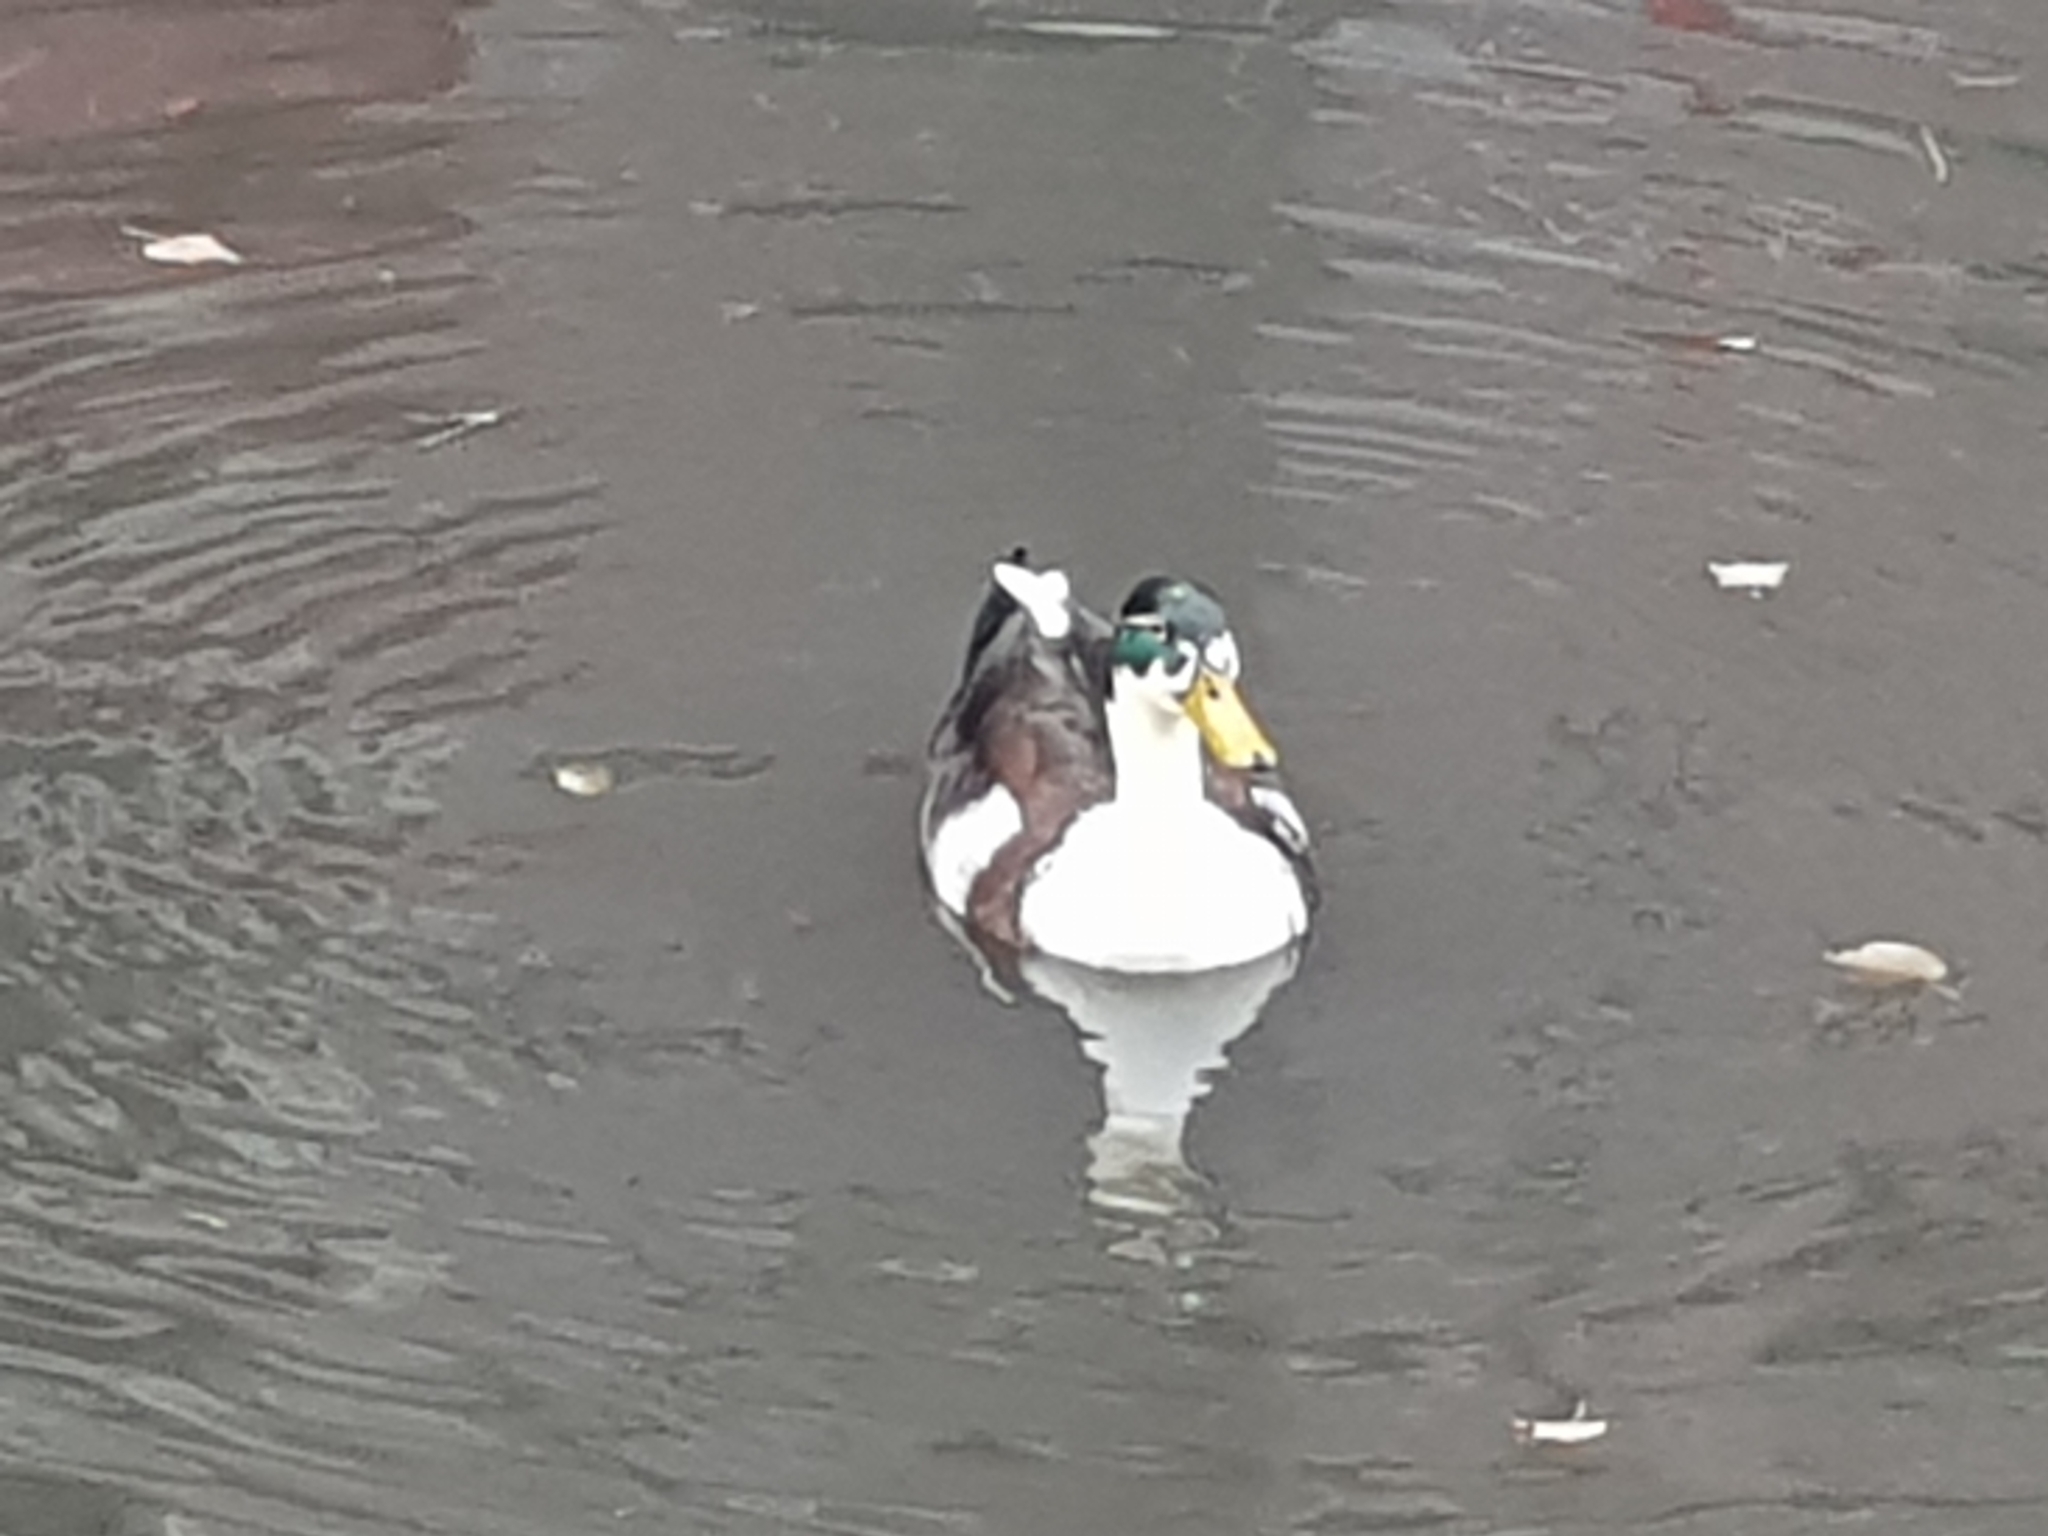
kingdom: Animalia
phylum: Chordata
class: Aves
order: Anseriformes
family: Anatidae
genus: Anas
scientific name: Anas platyrhynchos
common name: Mallard
